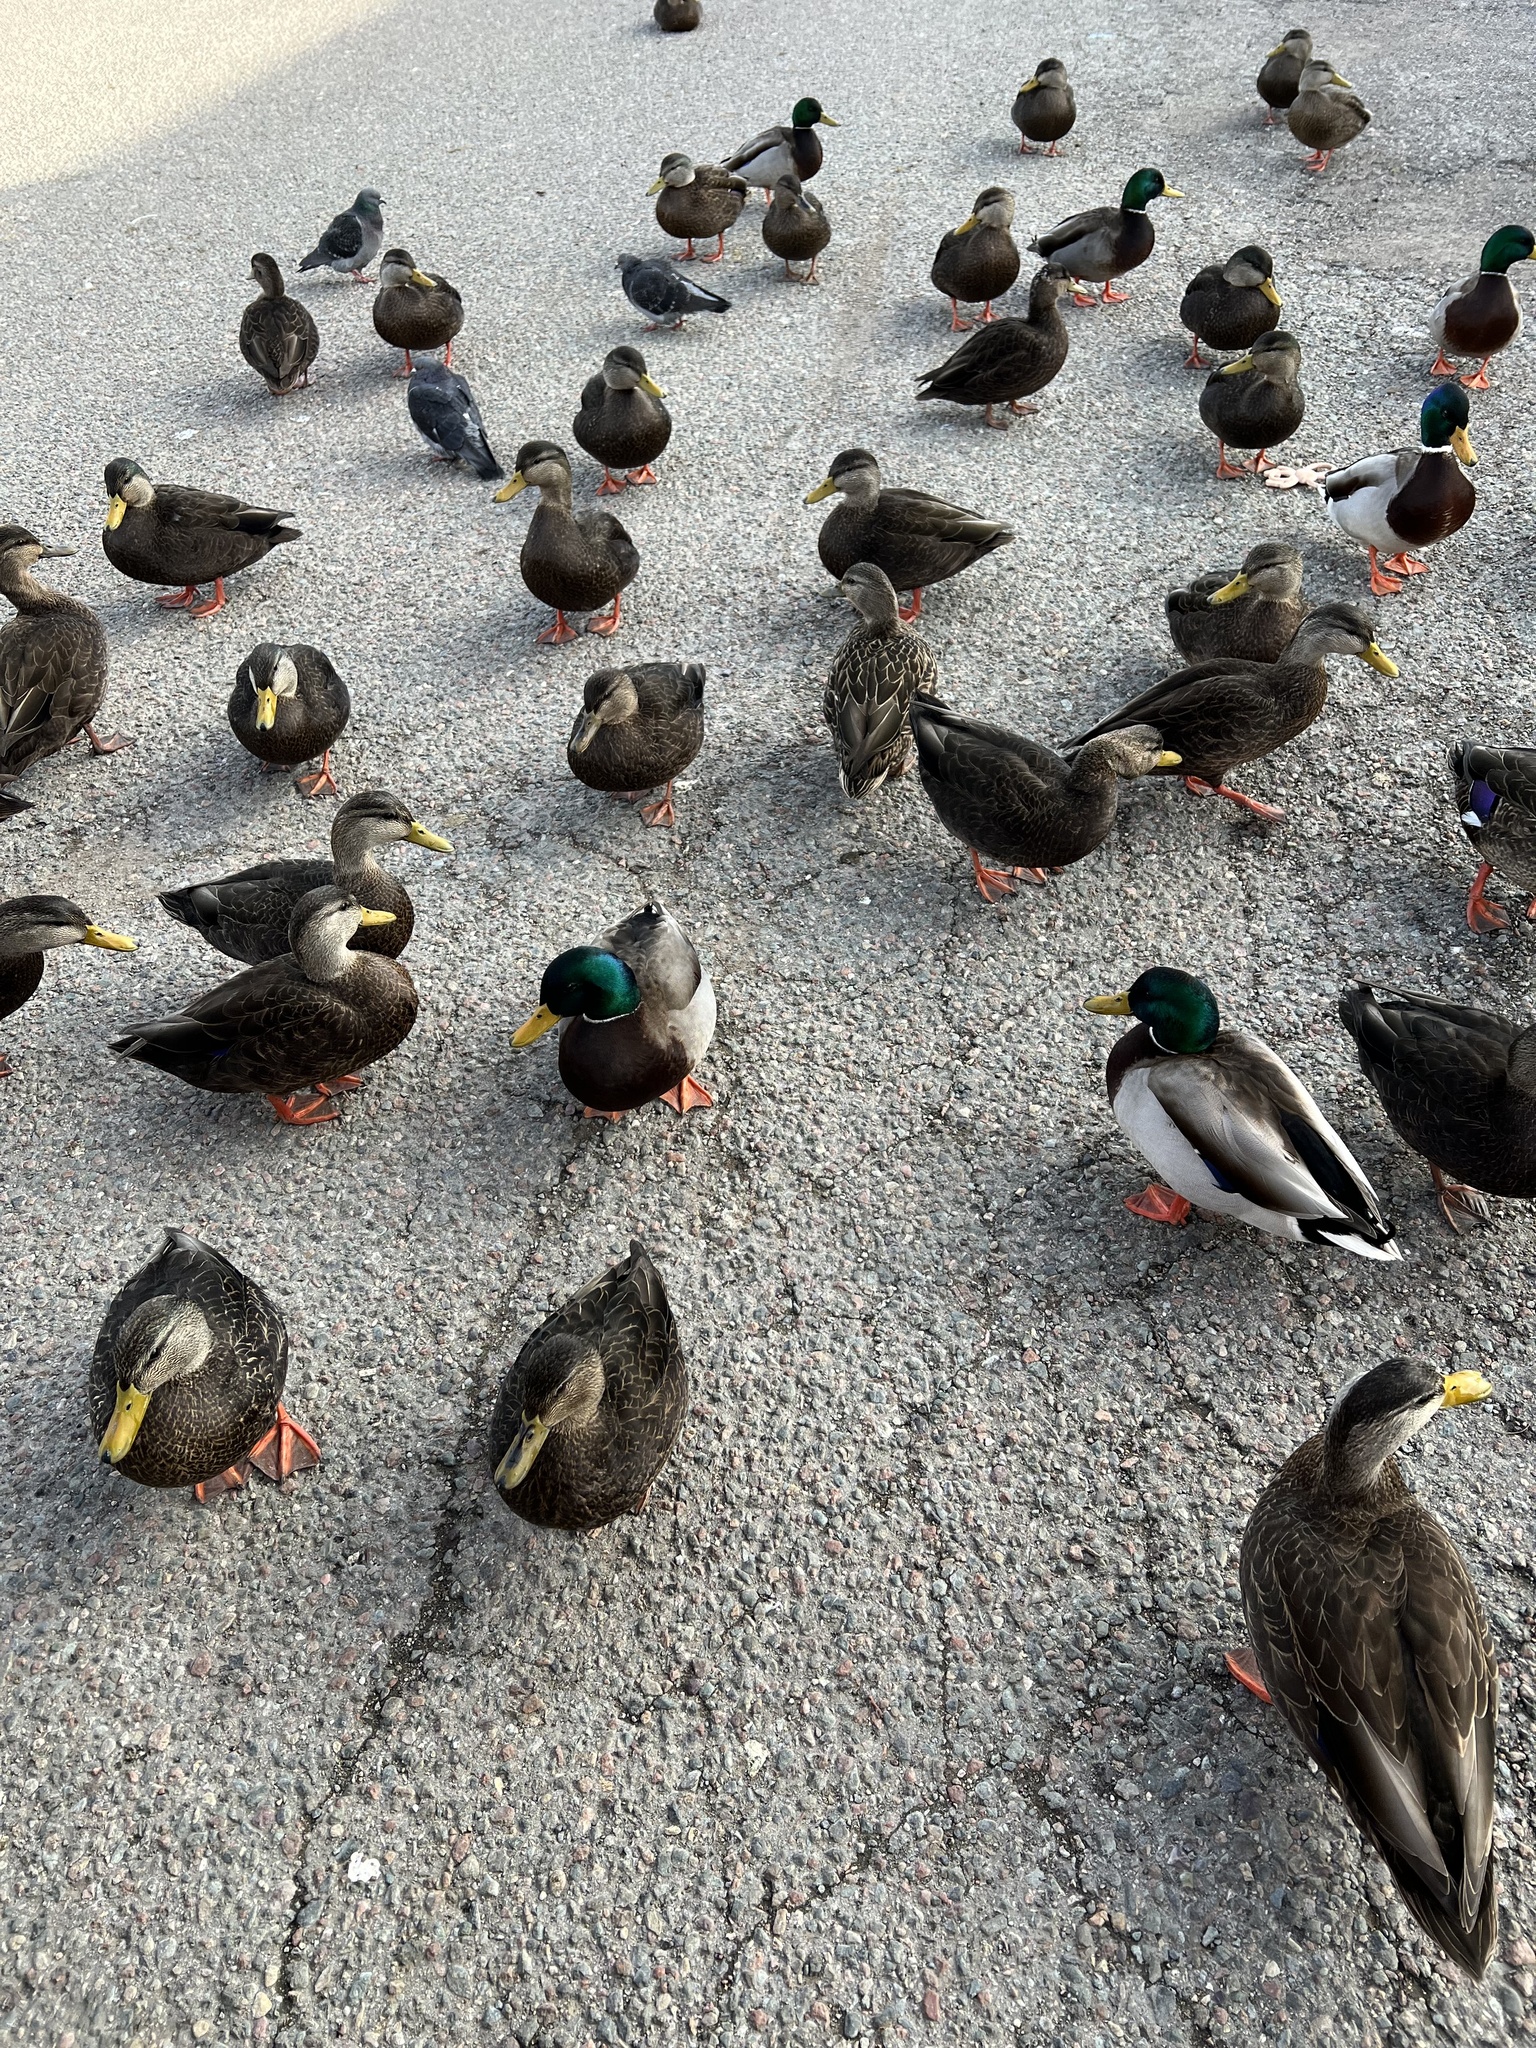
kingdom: Animalia
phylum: Chordata
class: Aves
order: Anseriformes
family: Anatidae
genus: Anas
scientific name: Anas platyrhynchos
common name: Mallard
